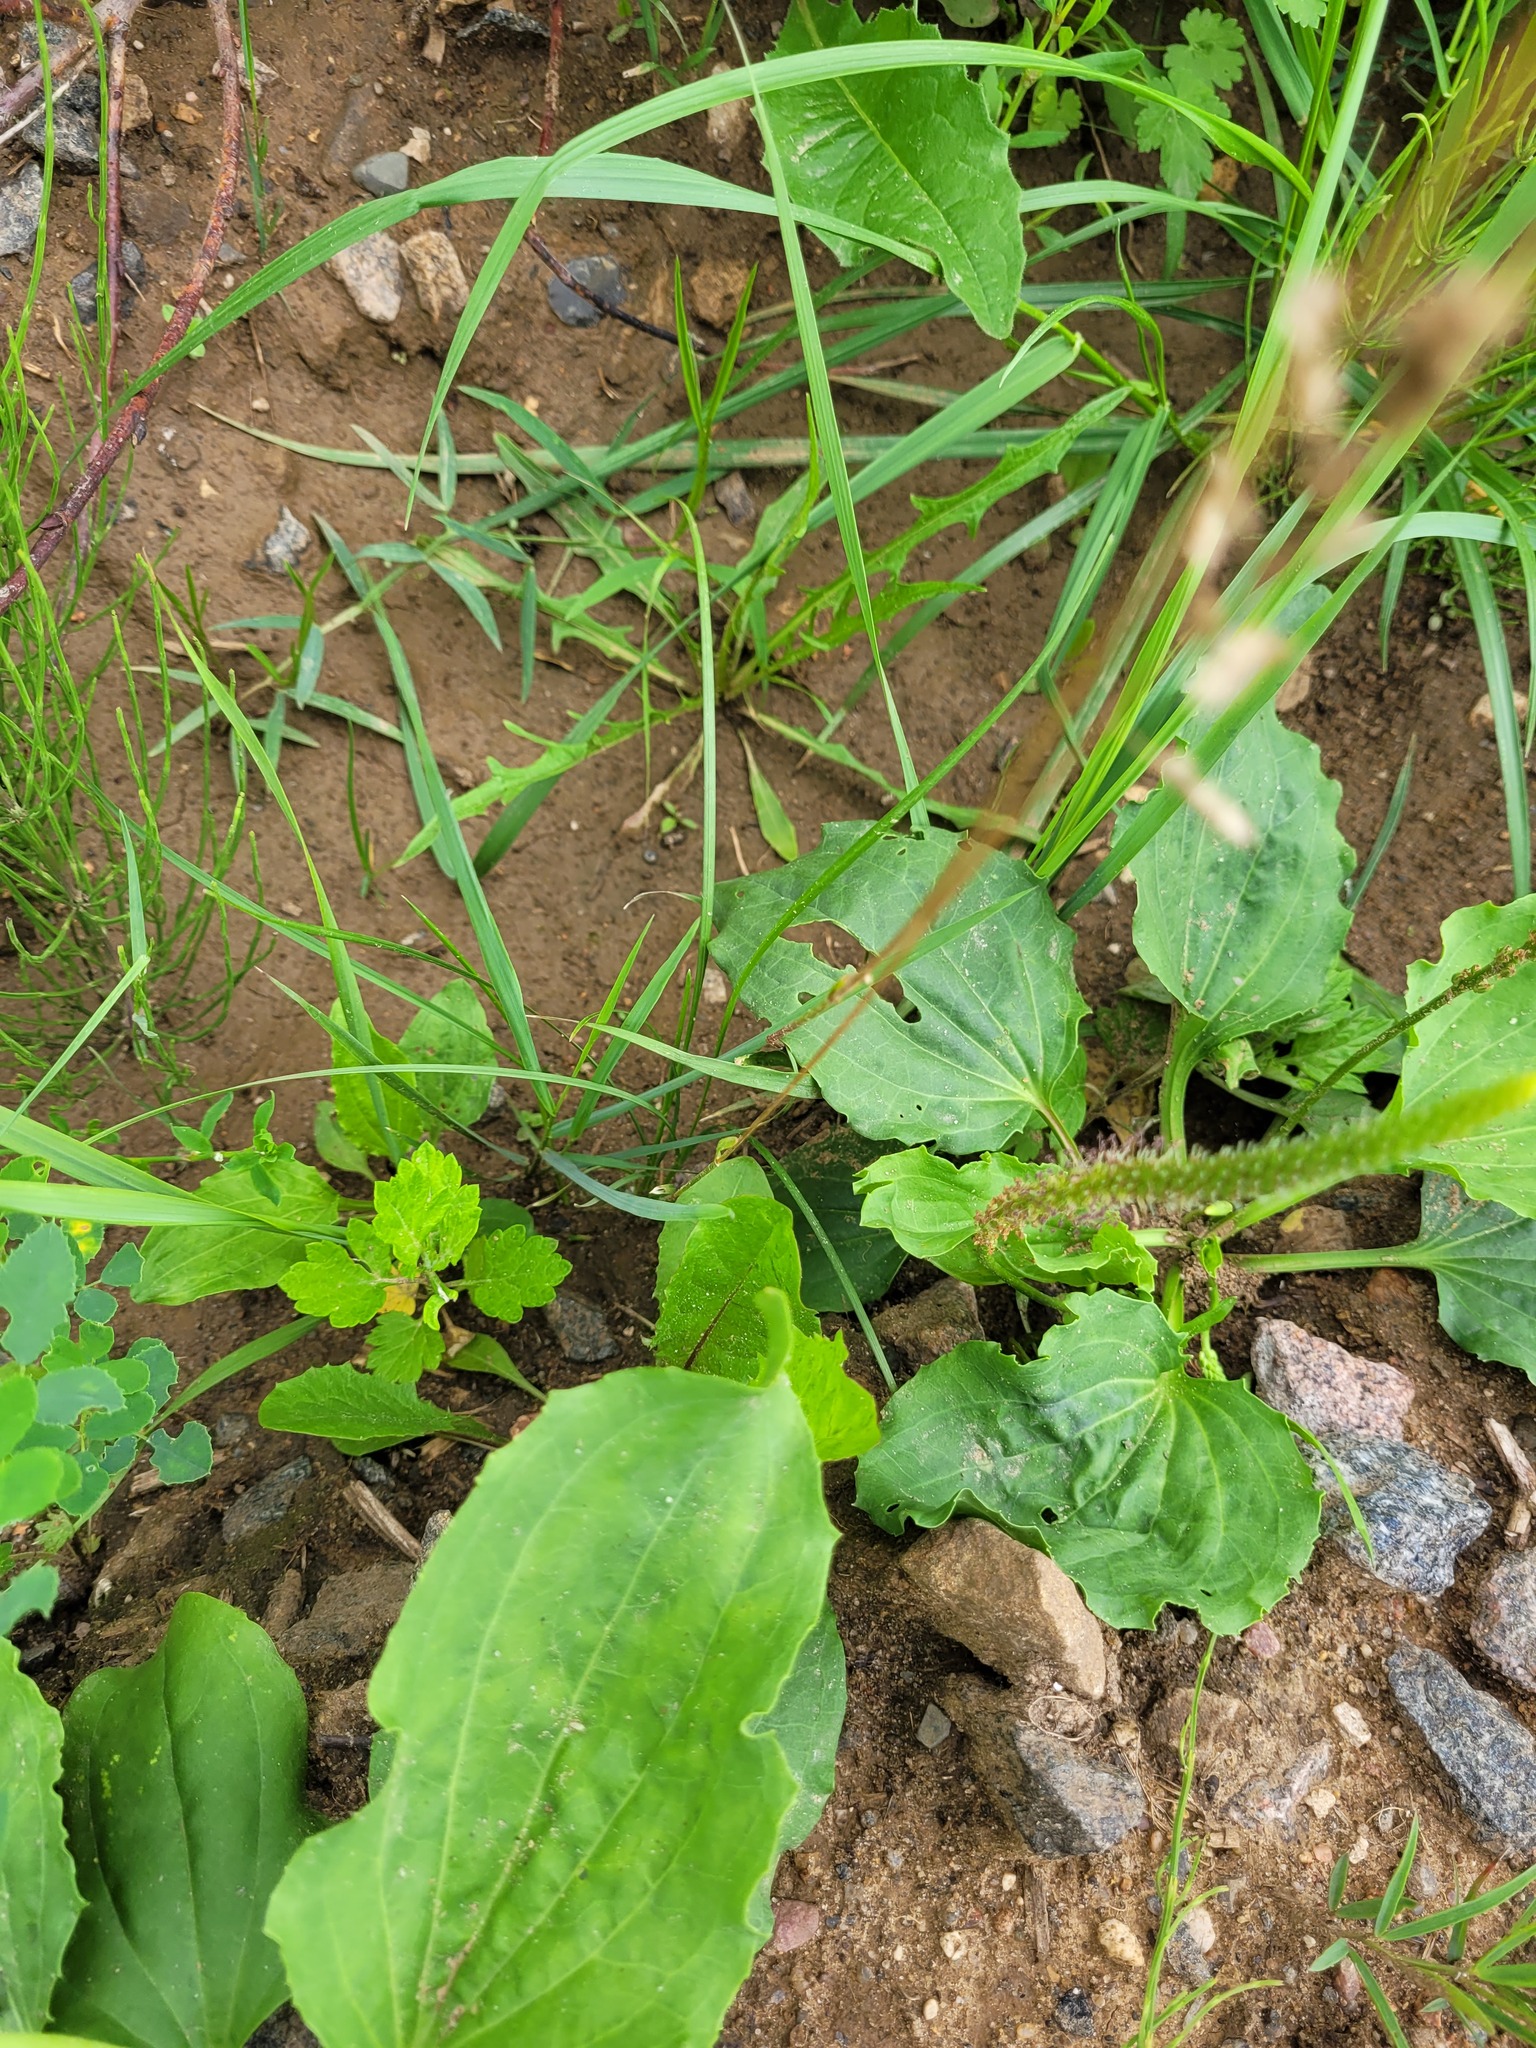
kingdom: Plantae
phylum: Tracheophyta
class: Liliopsida
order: Poales
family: Poaceae
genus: Poa
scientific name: Poa pratensis
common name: Kentucky bluegrass
